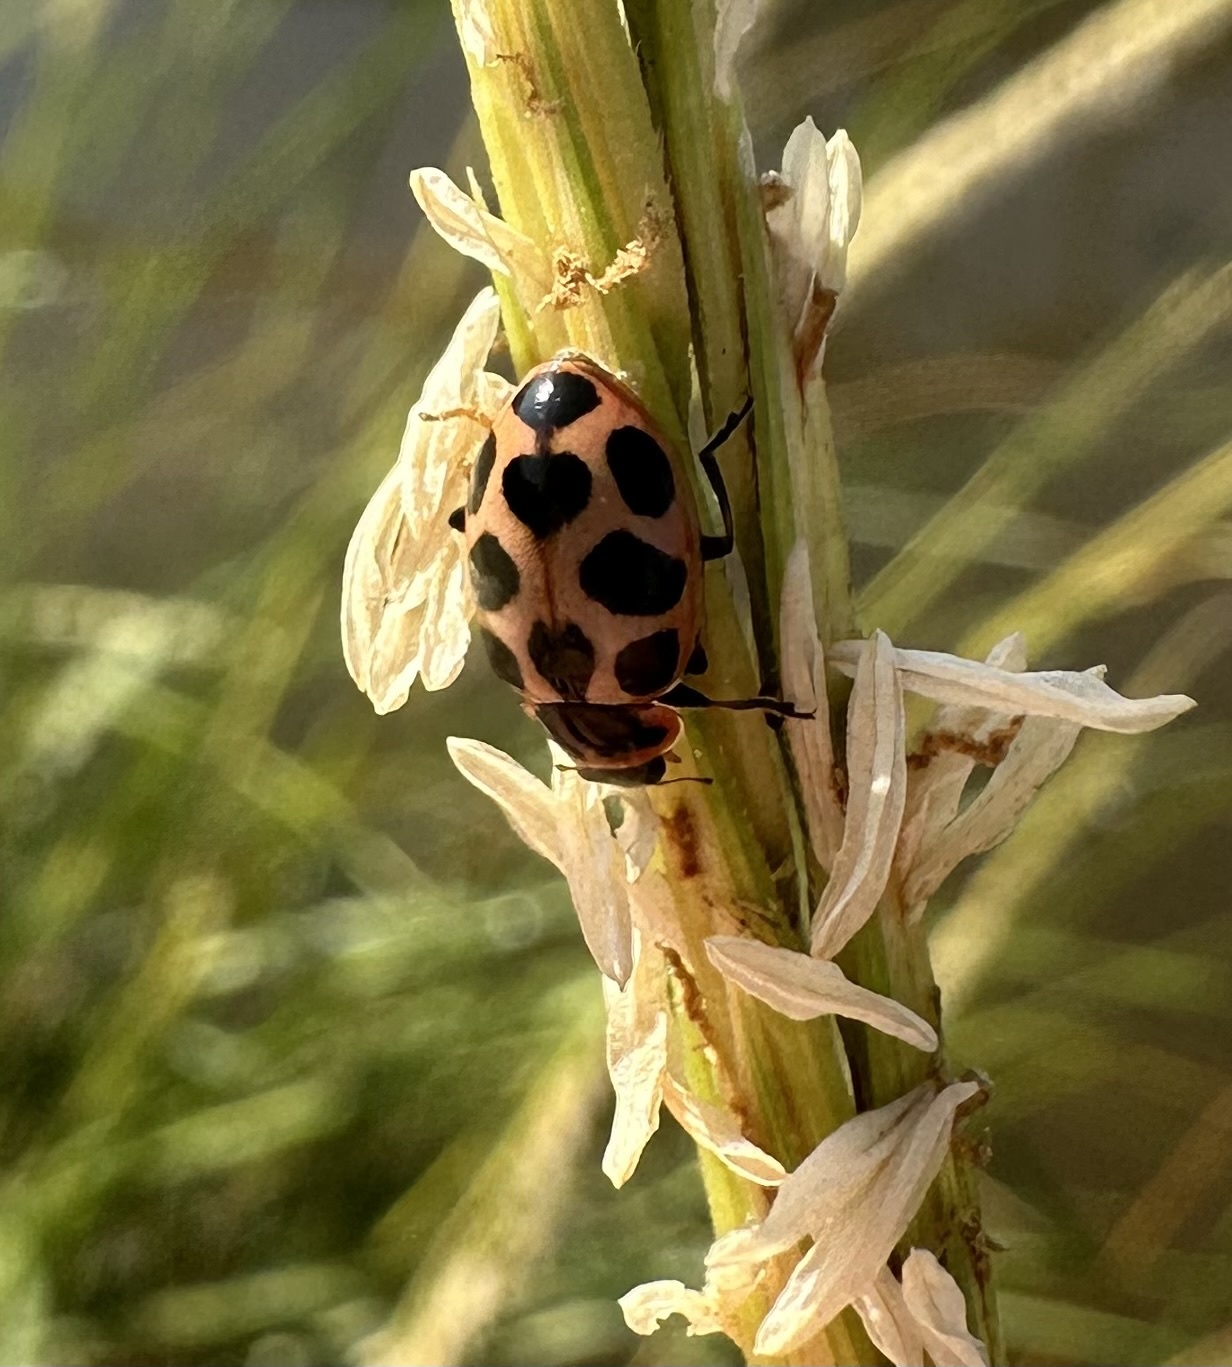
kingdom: Animalia
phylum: Arthropoda
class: Insecta
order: Coleoptera
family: Coccinellidae
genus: Naemia
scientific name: Naemia seriata
